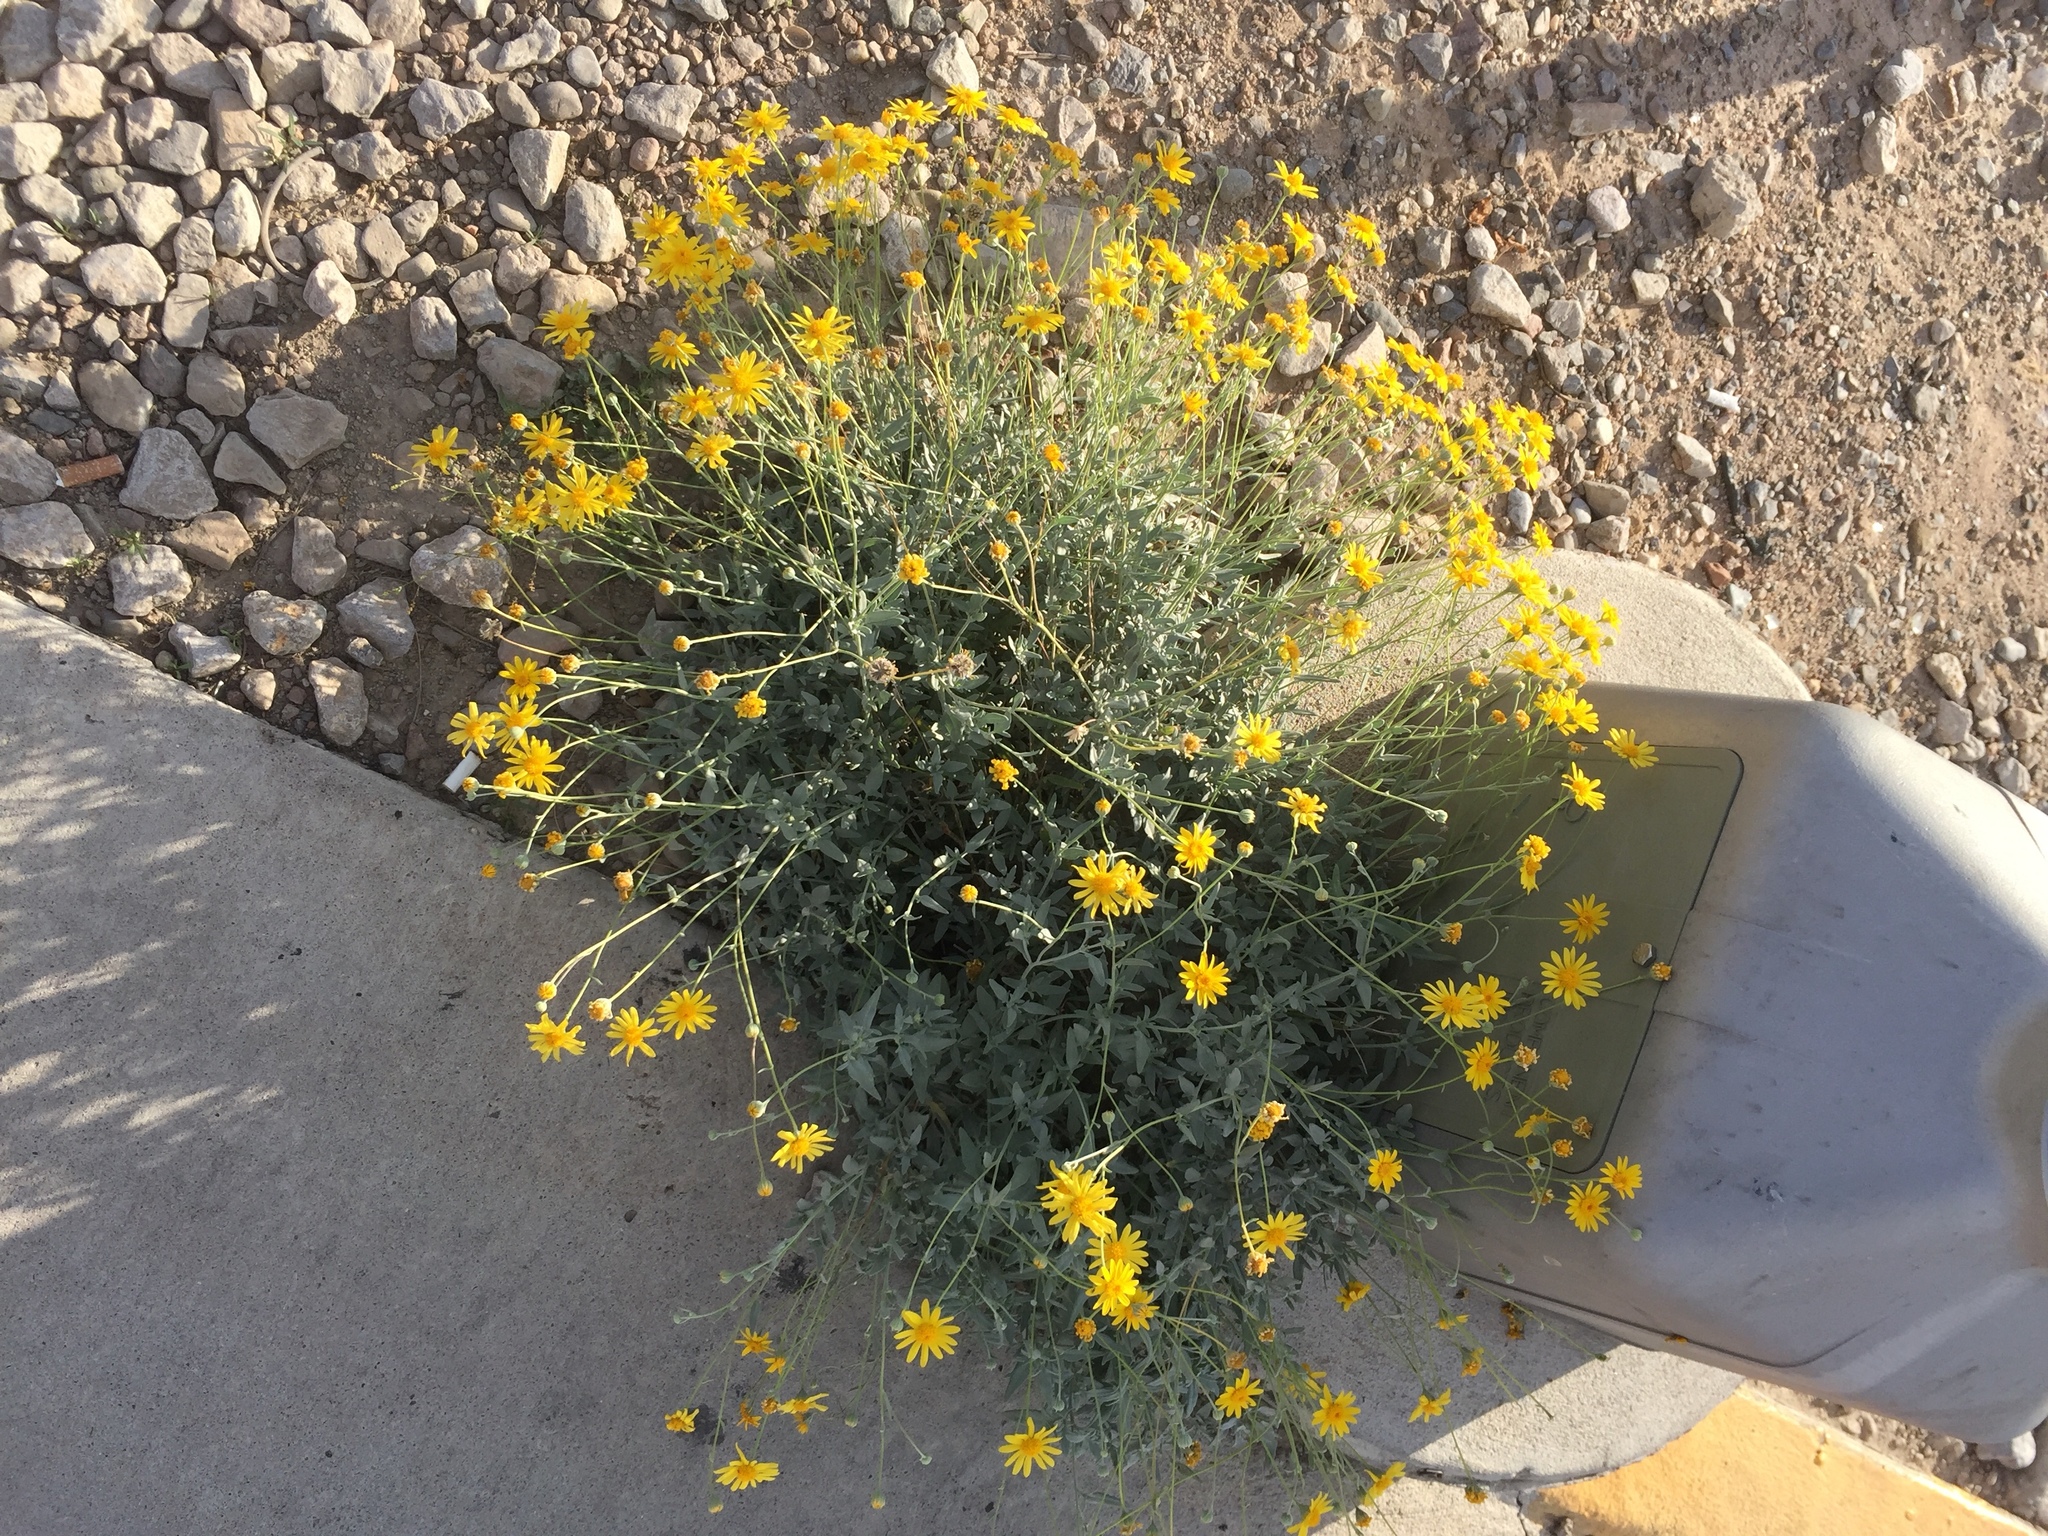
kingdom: Plantae
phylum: Tracheophyta
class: Magnoliopsida
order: Asterales
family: Asteraceae
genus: Picradeniopsis
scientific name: Picradeniopsis absinthifolia
